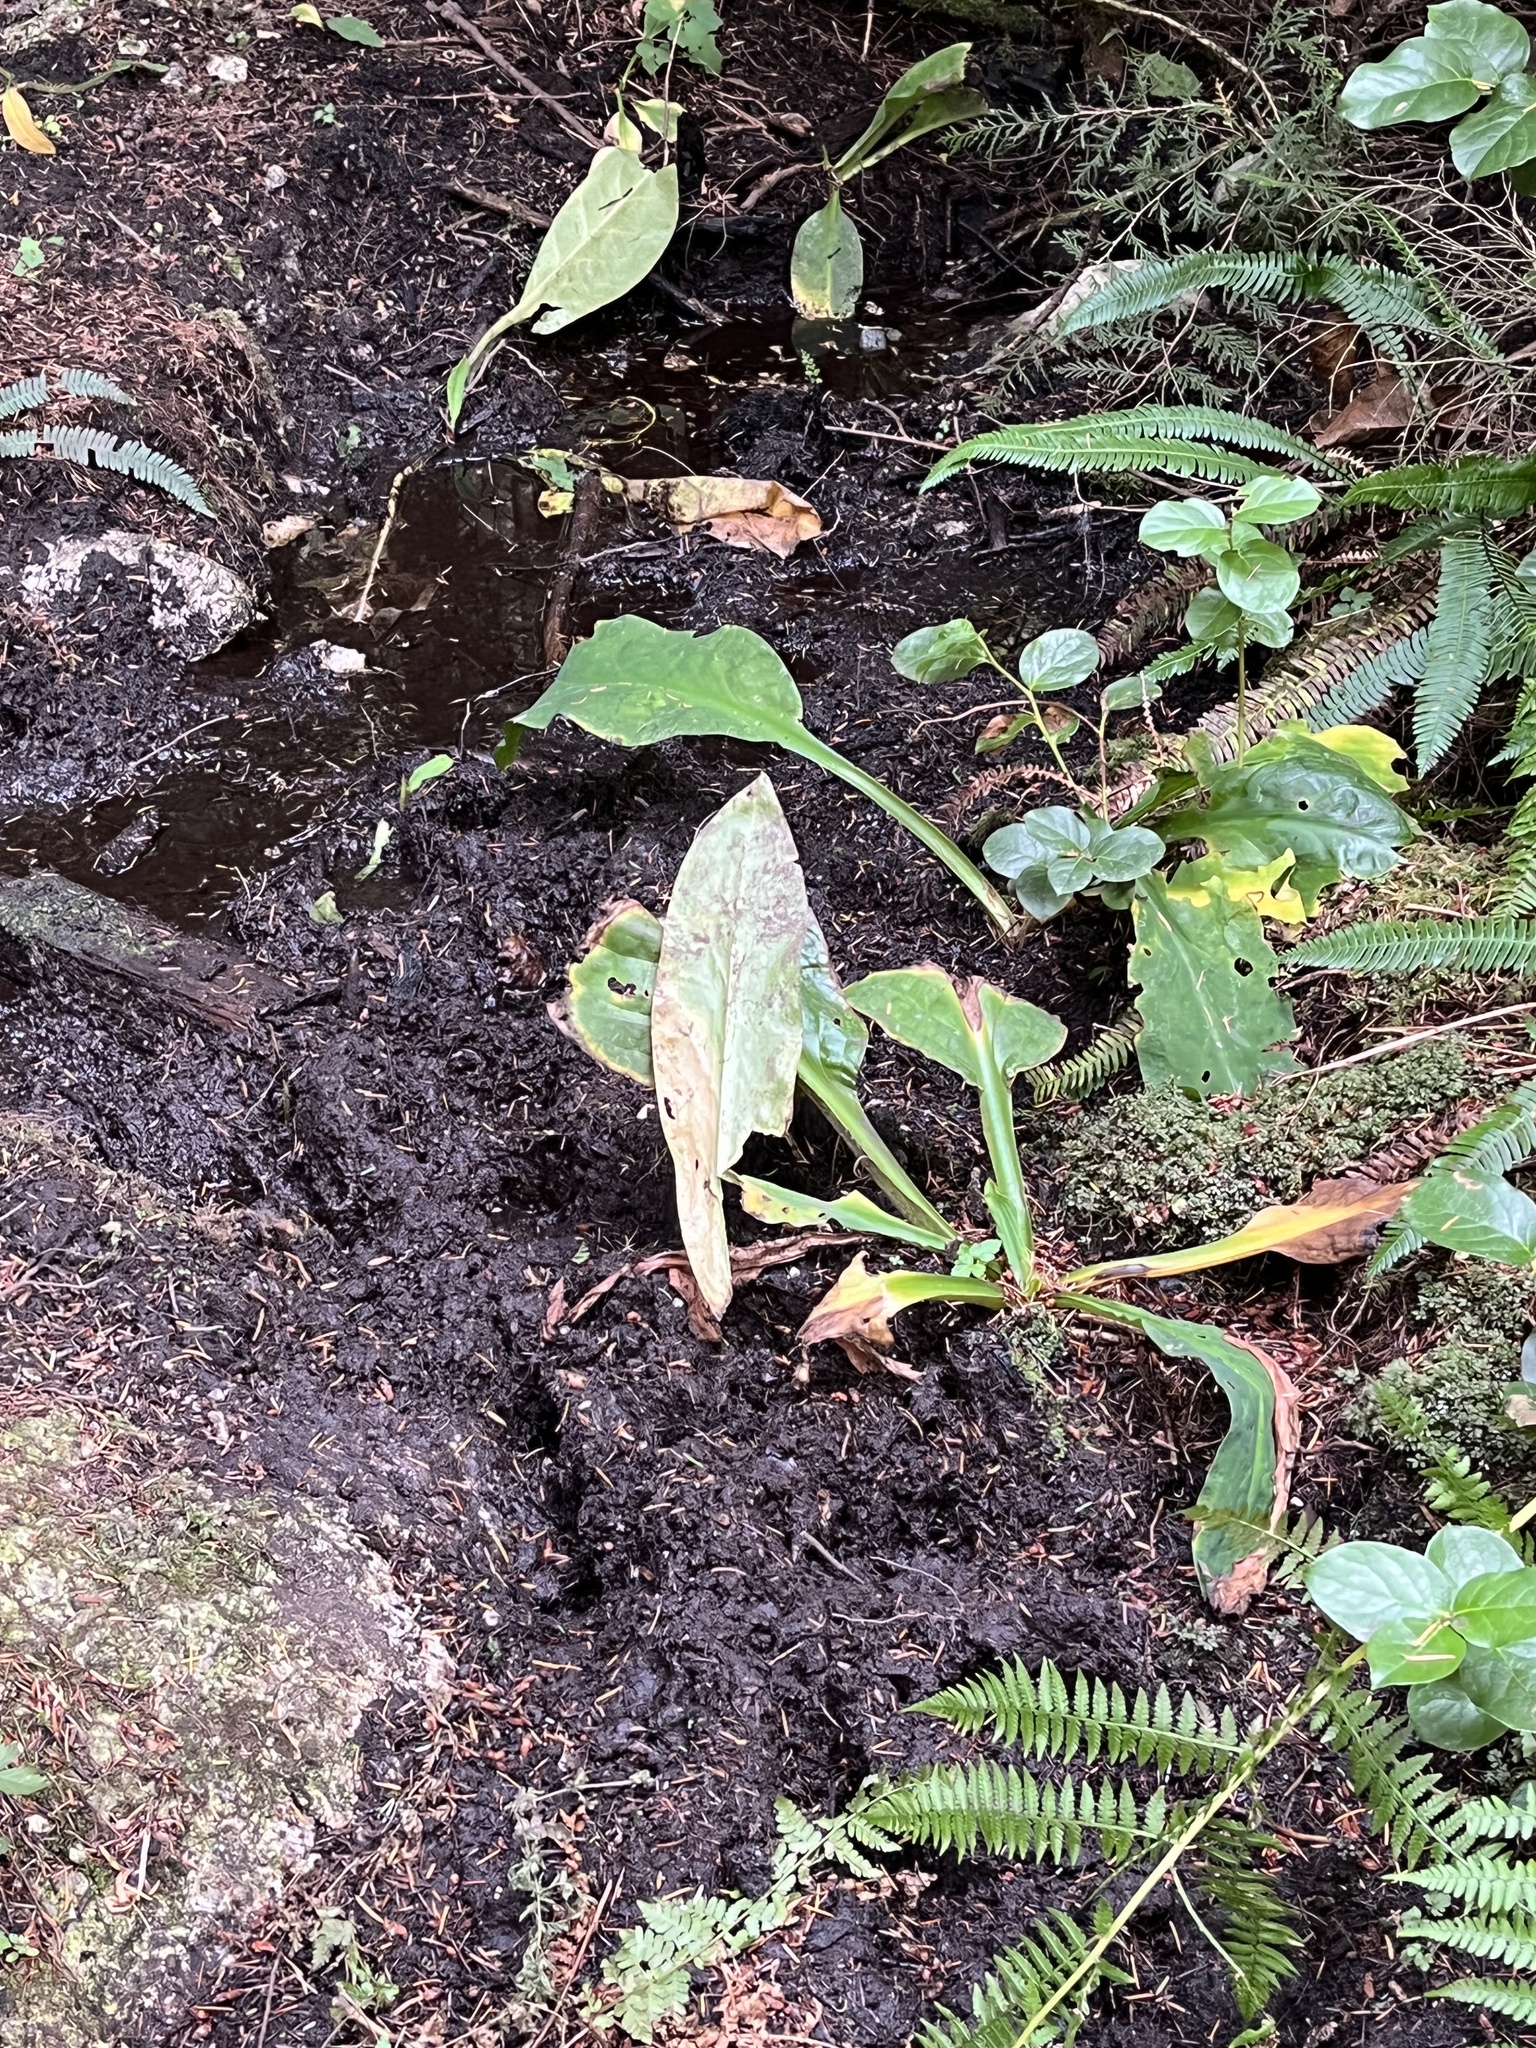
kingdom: Plantae
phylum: Tracheophyta
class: Liliopsida
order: Alismatales
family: Araceae
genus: Lysichiton
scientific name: Lysichiton americanus
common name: American skunk cabbage
